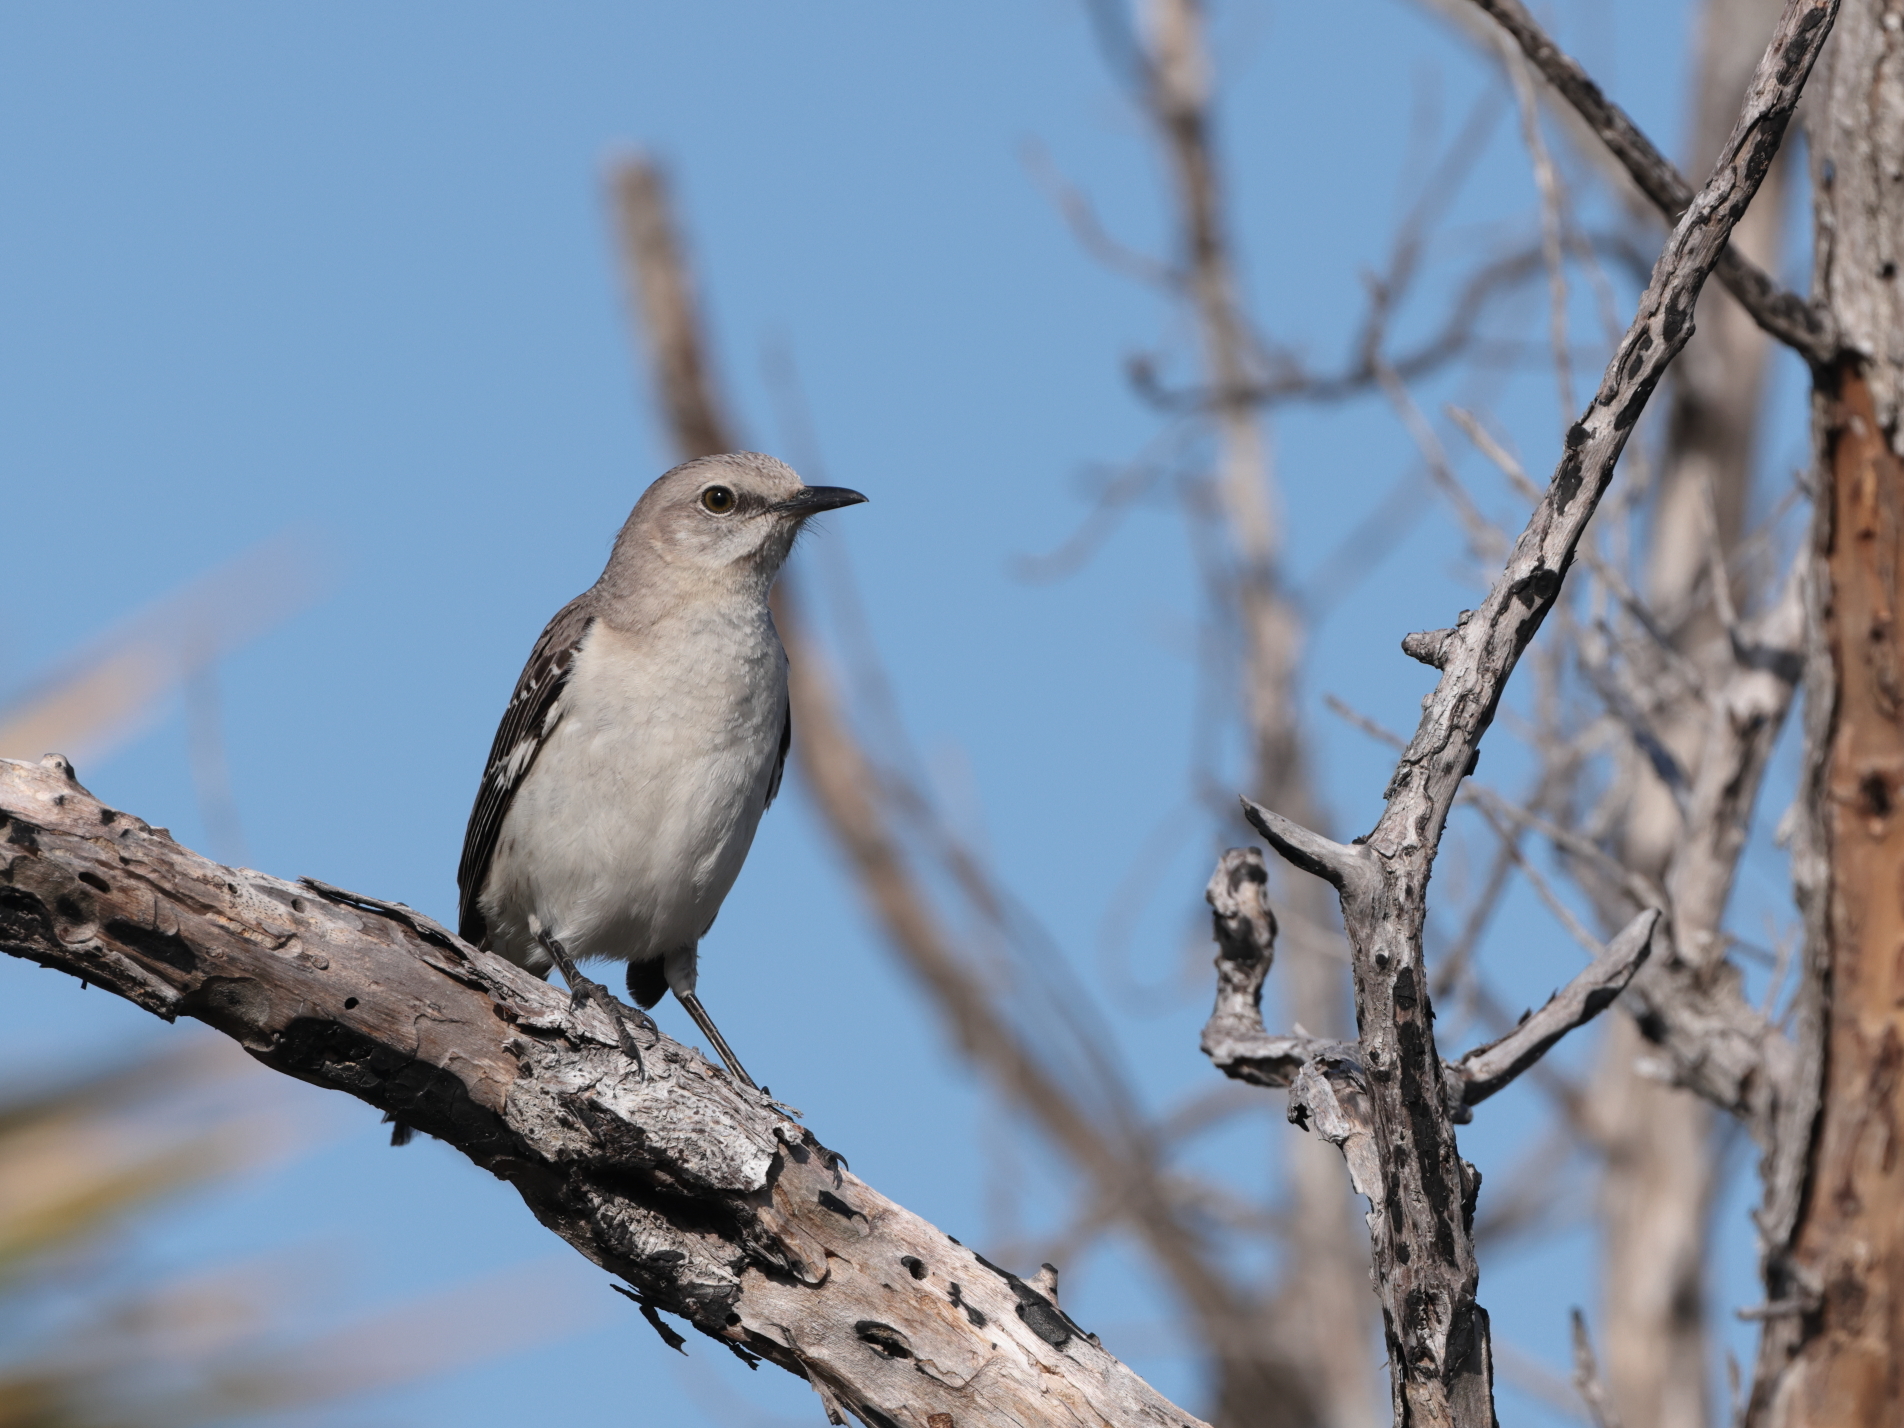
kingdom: Animalia
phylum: Chordata
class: Aves
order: Passeriformes
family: Mimidae
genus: Mimus
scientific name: Mimus polyglottos
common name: Northern mockingbird
